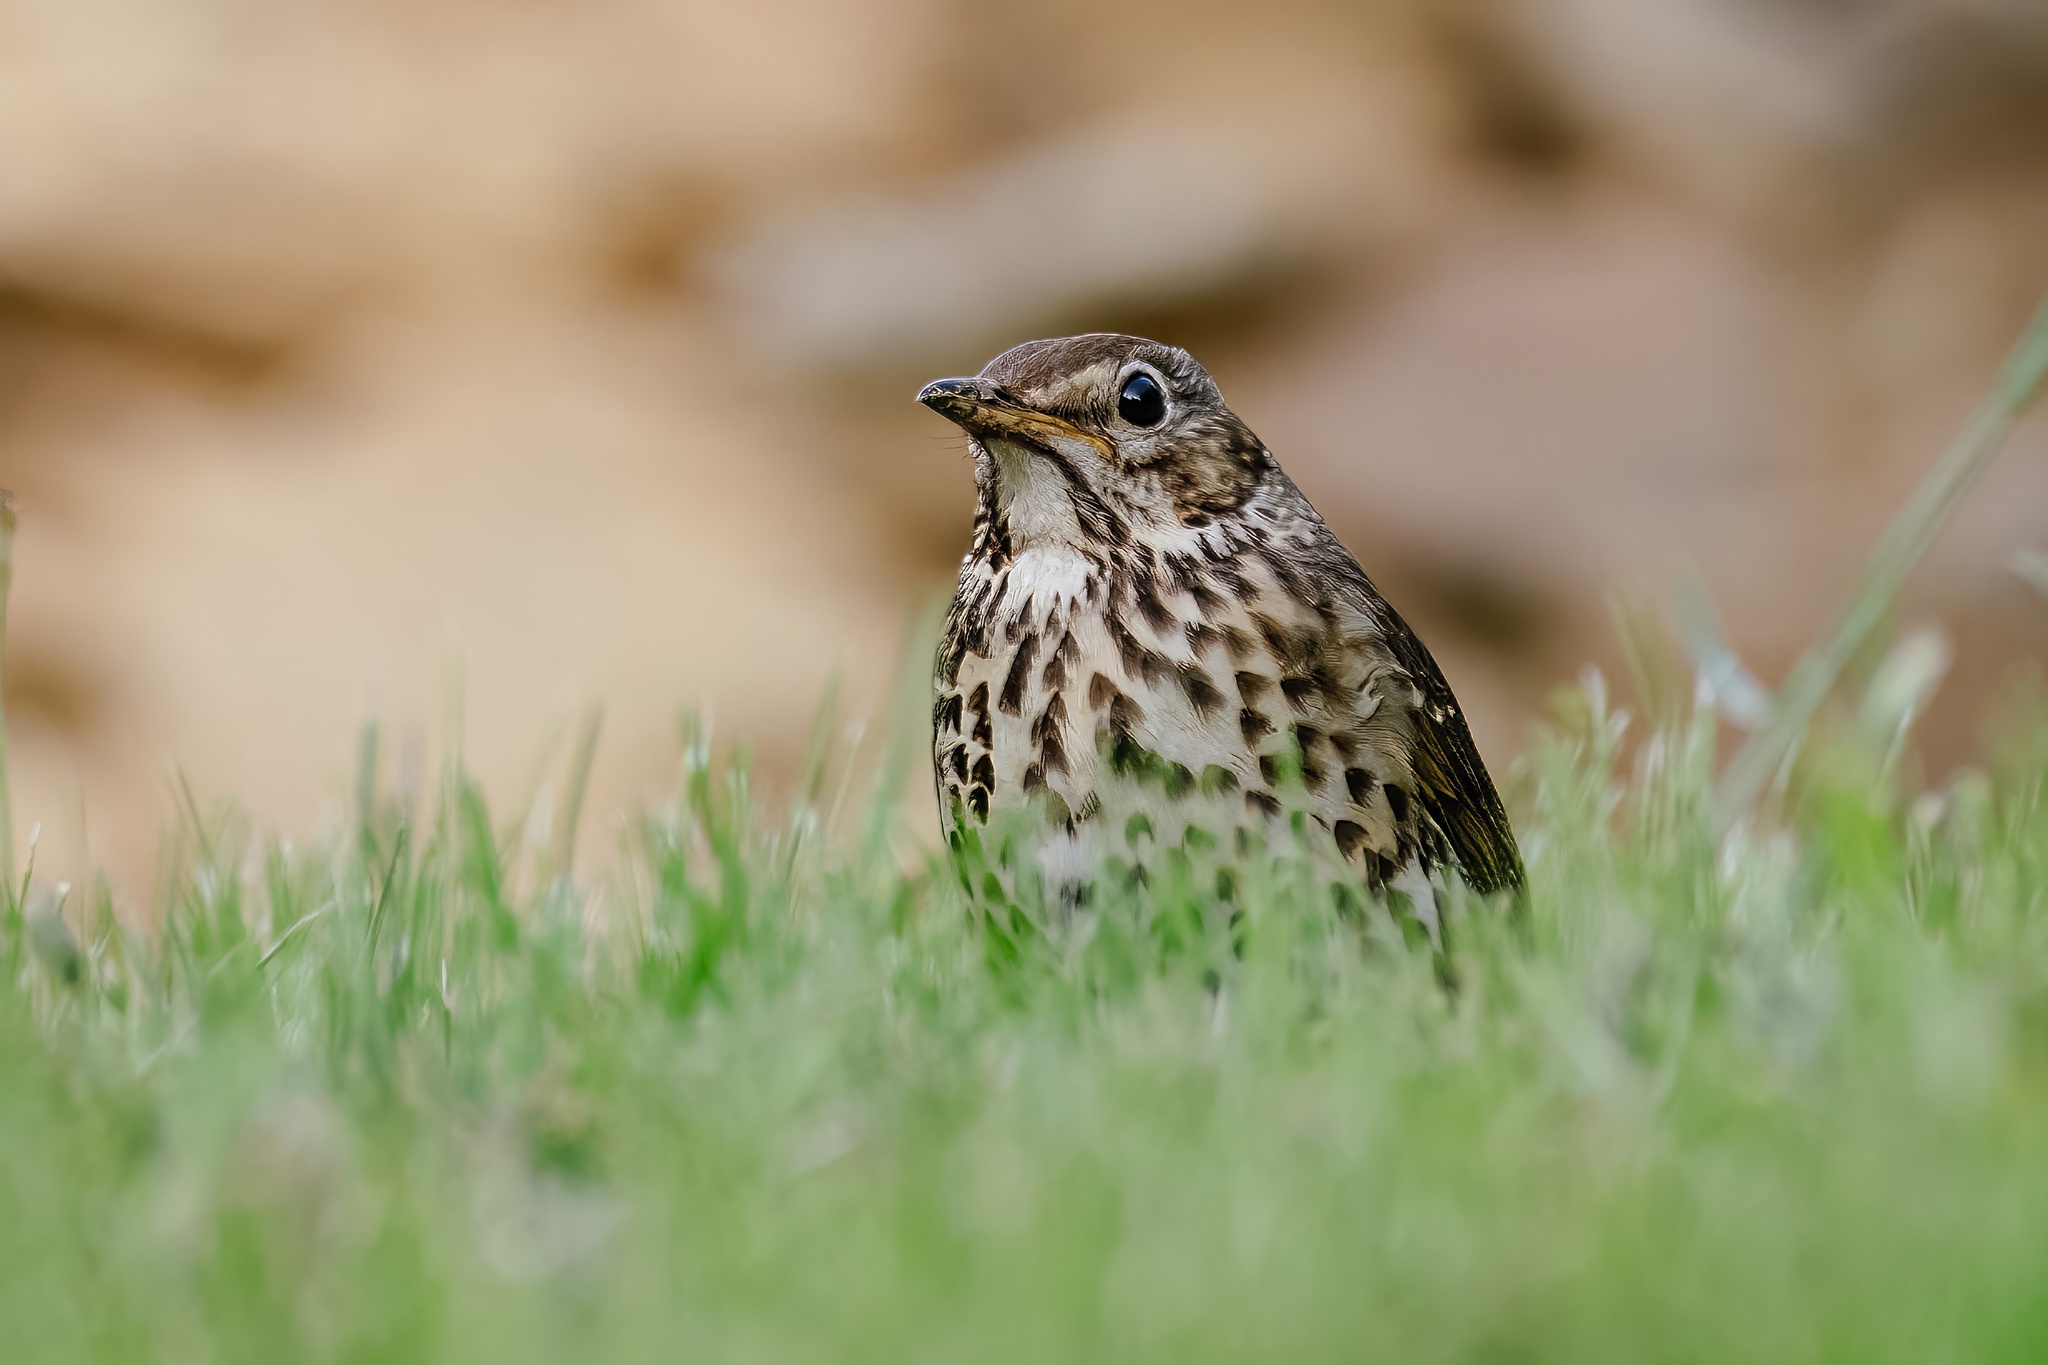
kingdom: Animalia
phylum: Chordata
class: Aves
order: Passeriformes
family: Turdidae
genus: Turdus
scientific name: Turdus philomelos
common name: Song thrush
